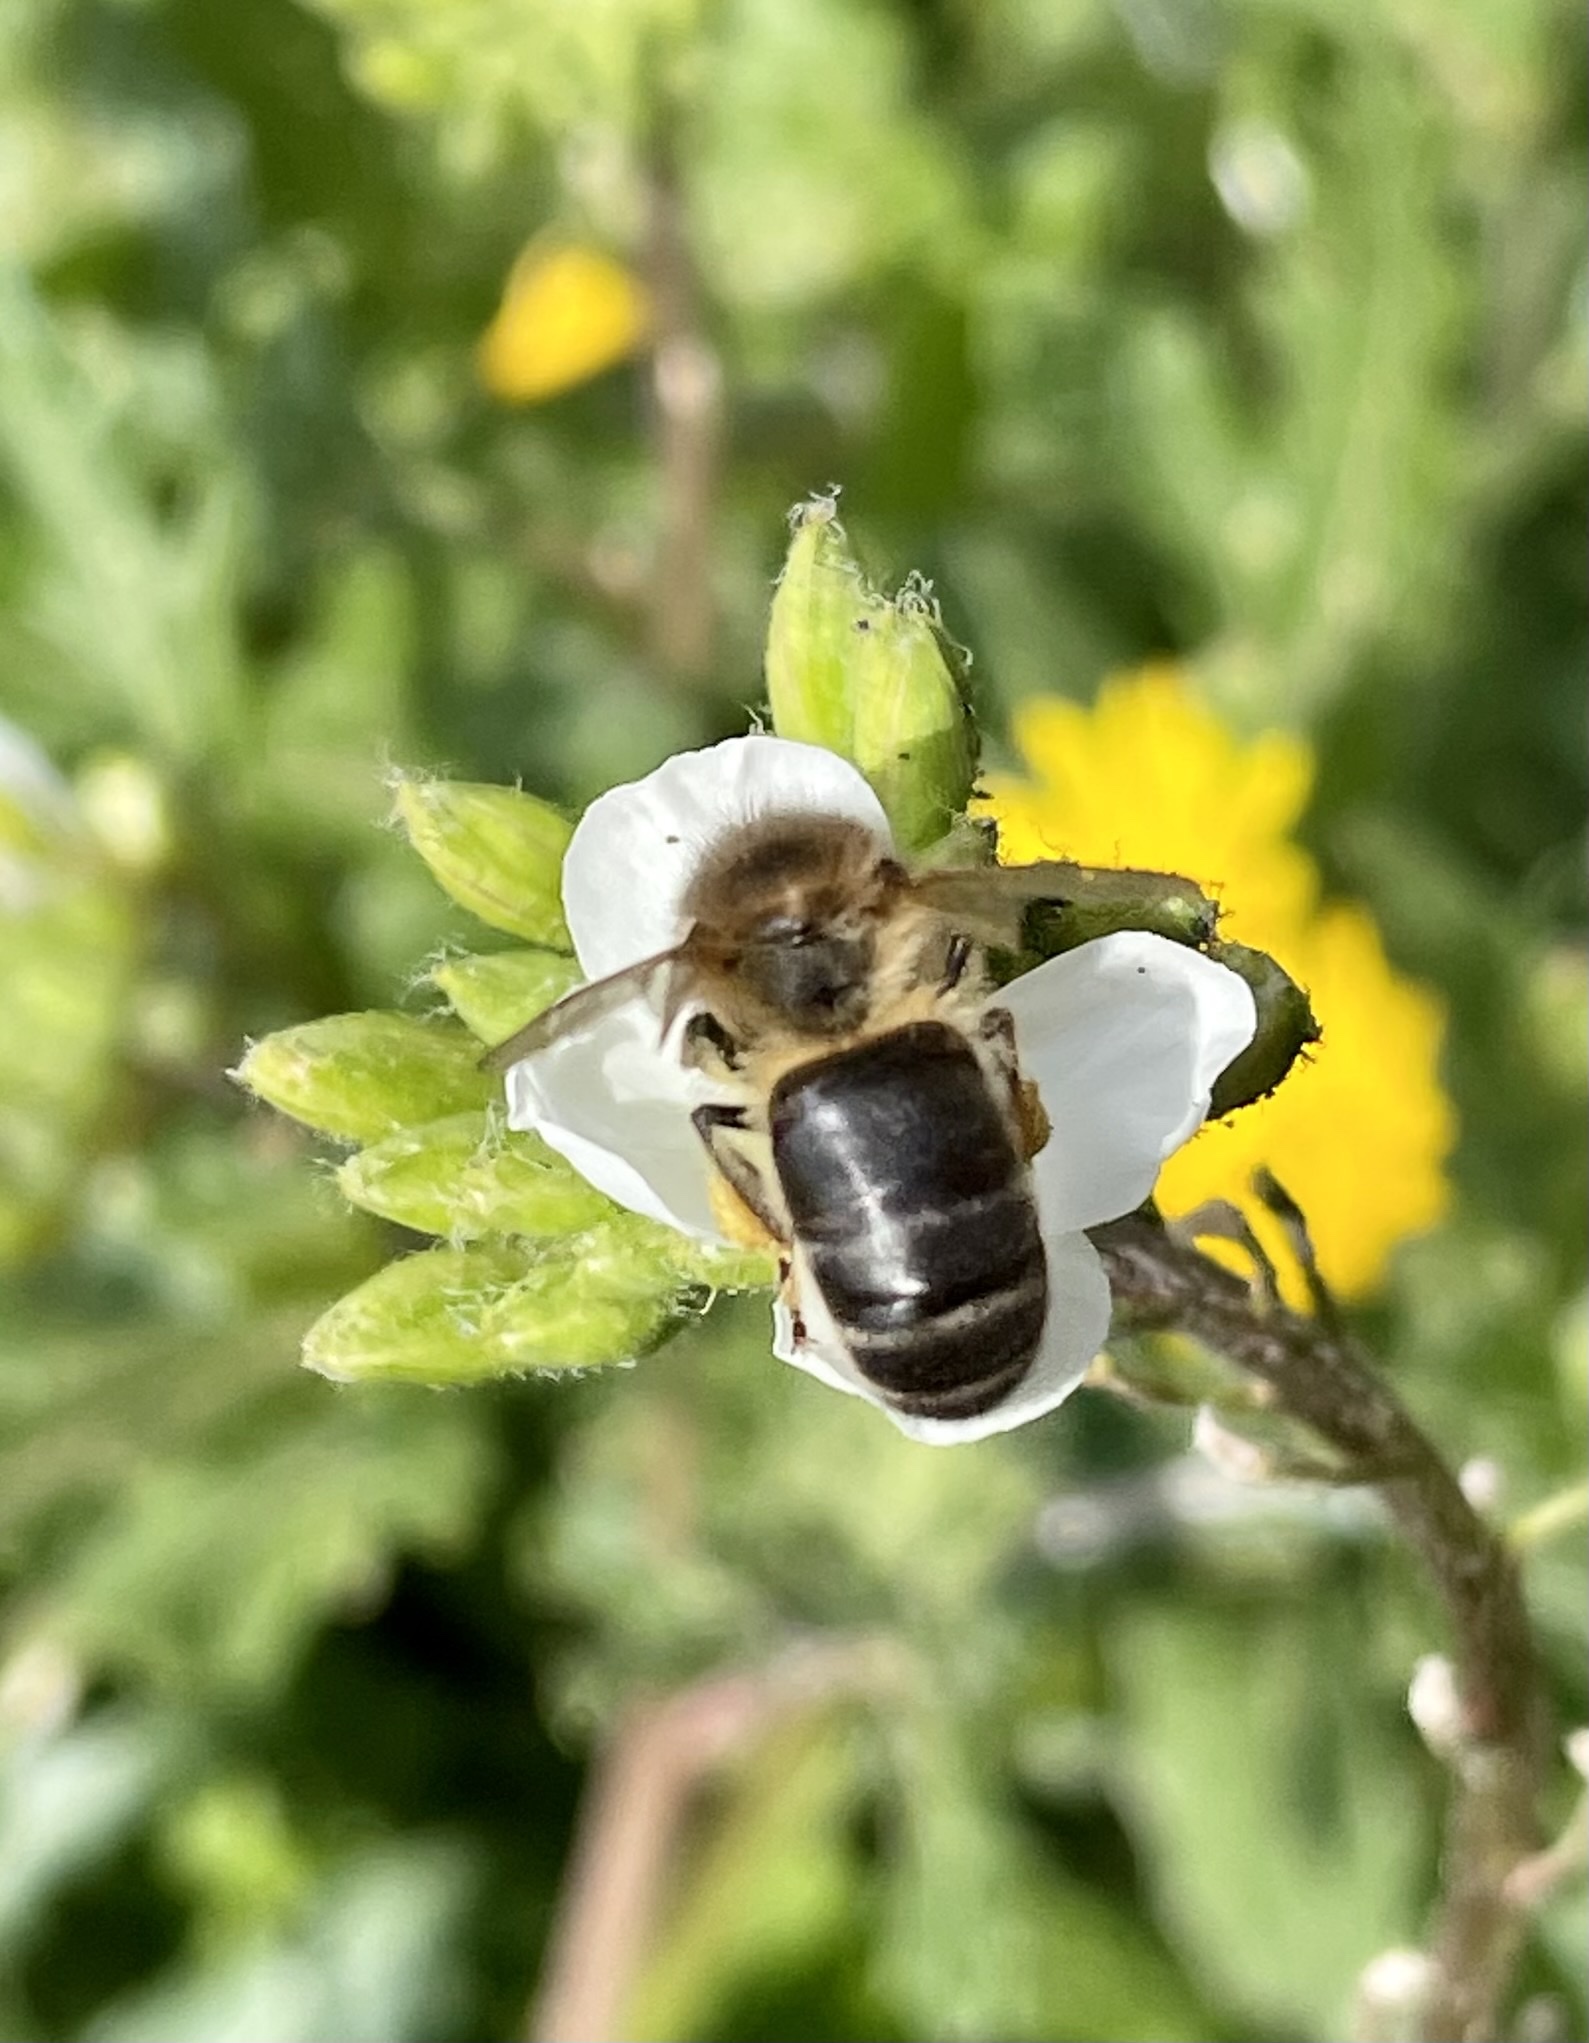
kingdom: Animalia
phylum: Arthropoda
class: Insecta
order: Hymenoptera
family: Apidae
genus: Apis
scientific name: Apis mellifera
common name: Honey bee
